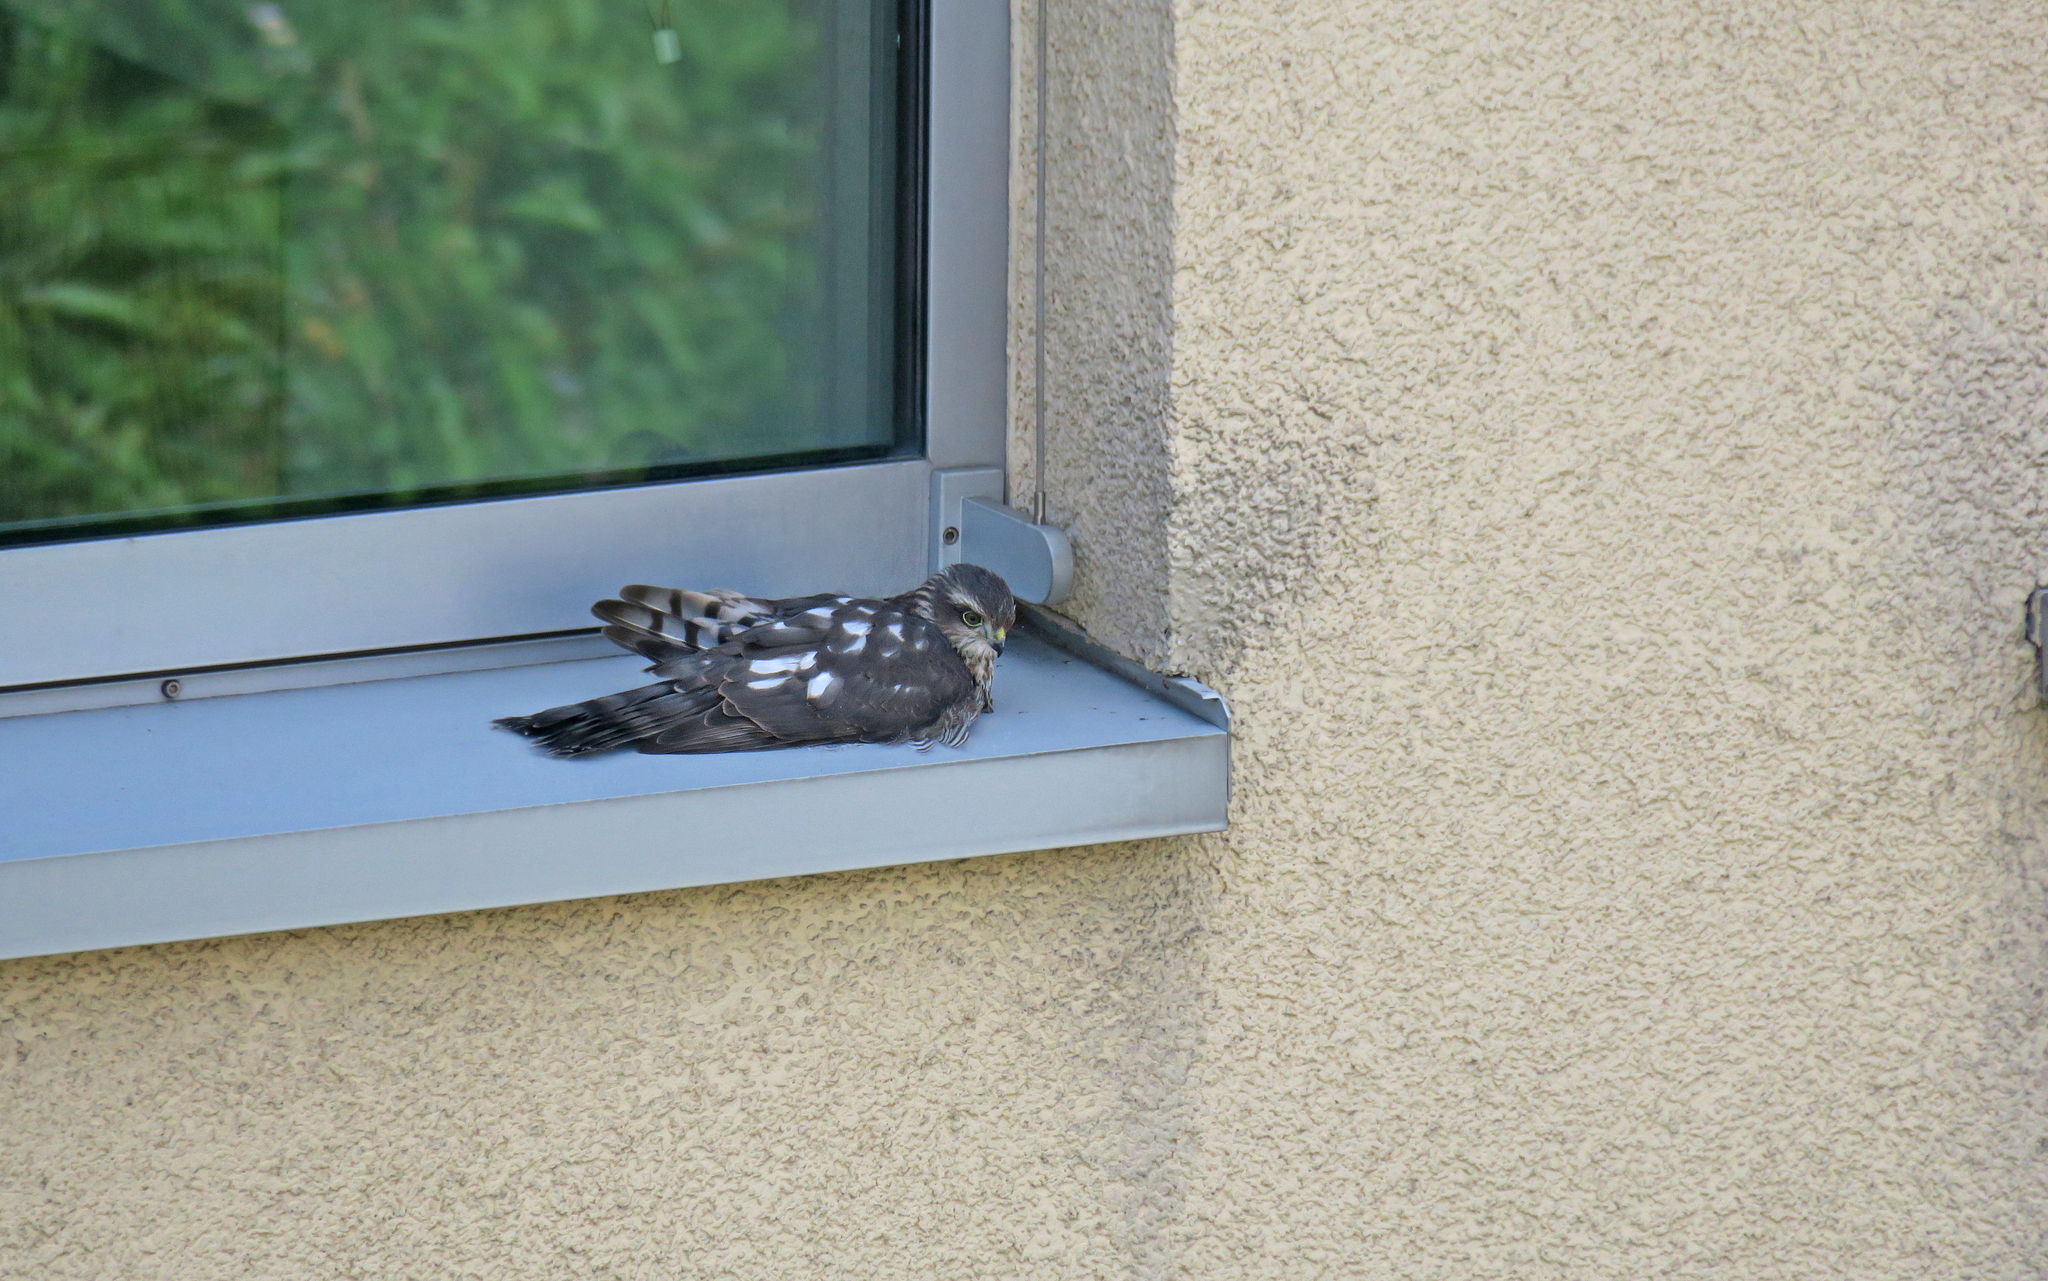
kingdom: Animalia
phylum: Chordata
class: Aves
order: Accipitriformes
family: Accipitridae
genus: Accipiter
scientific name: Accipiter nisus
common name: Eurasian sparrowhawk
